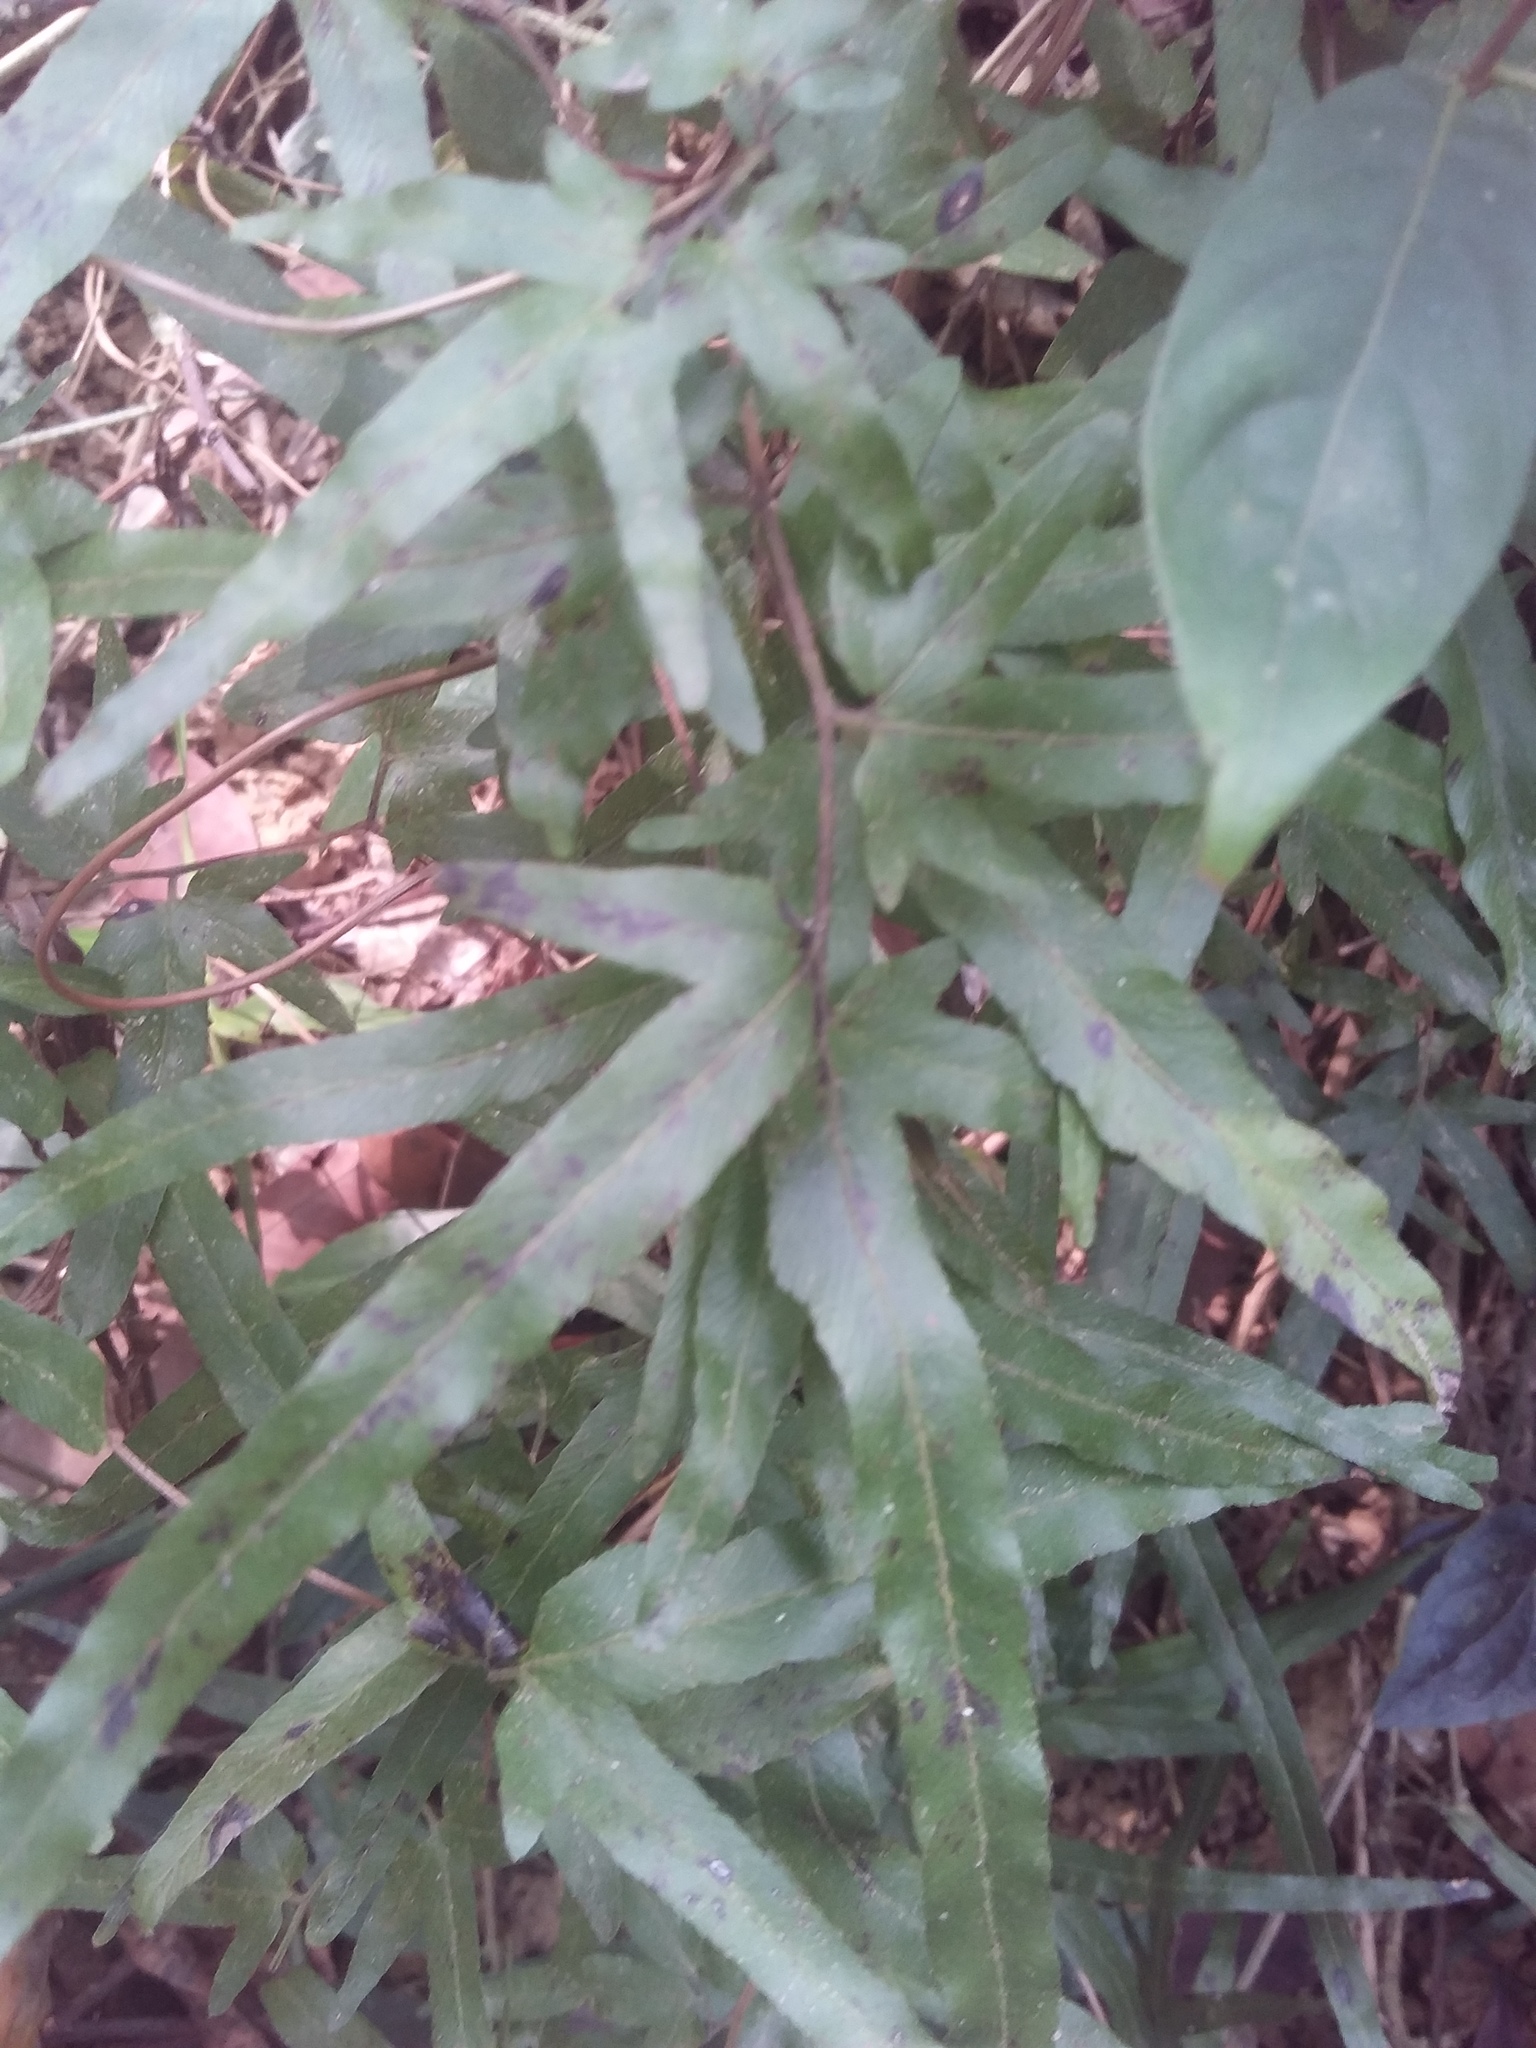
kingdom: Plantae
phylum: Tracheophyta
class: Polypodiopsida
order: Schizaeales
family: Lygodiaceae
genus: Lygodium
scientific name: Lygodium japonicum
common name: Japanese climbing fern
